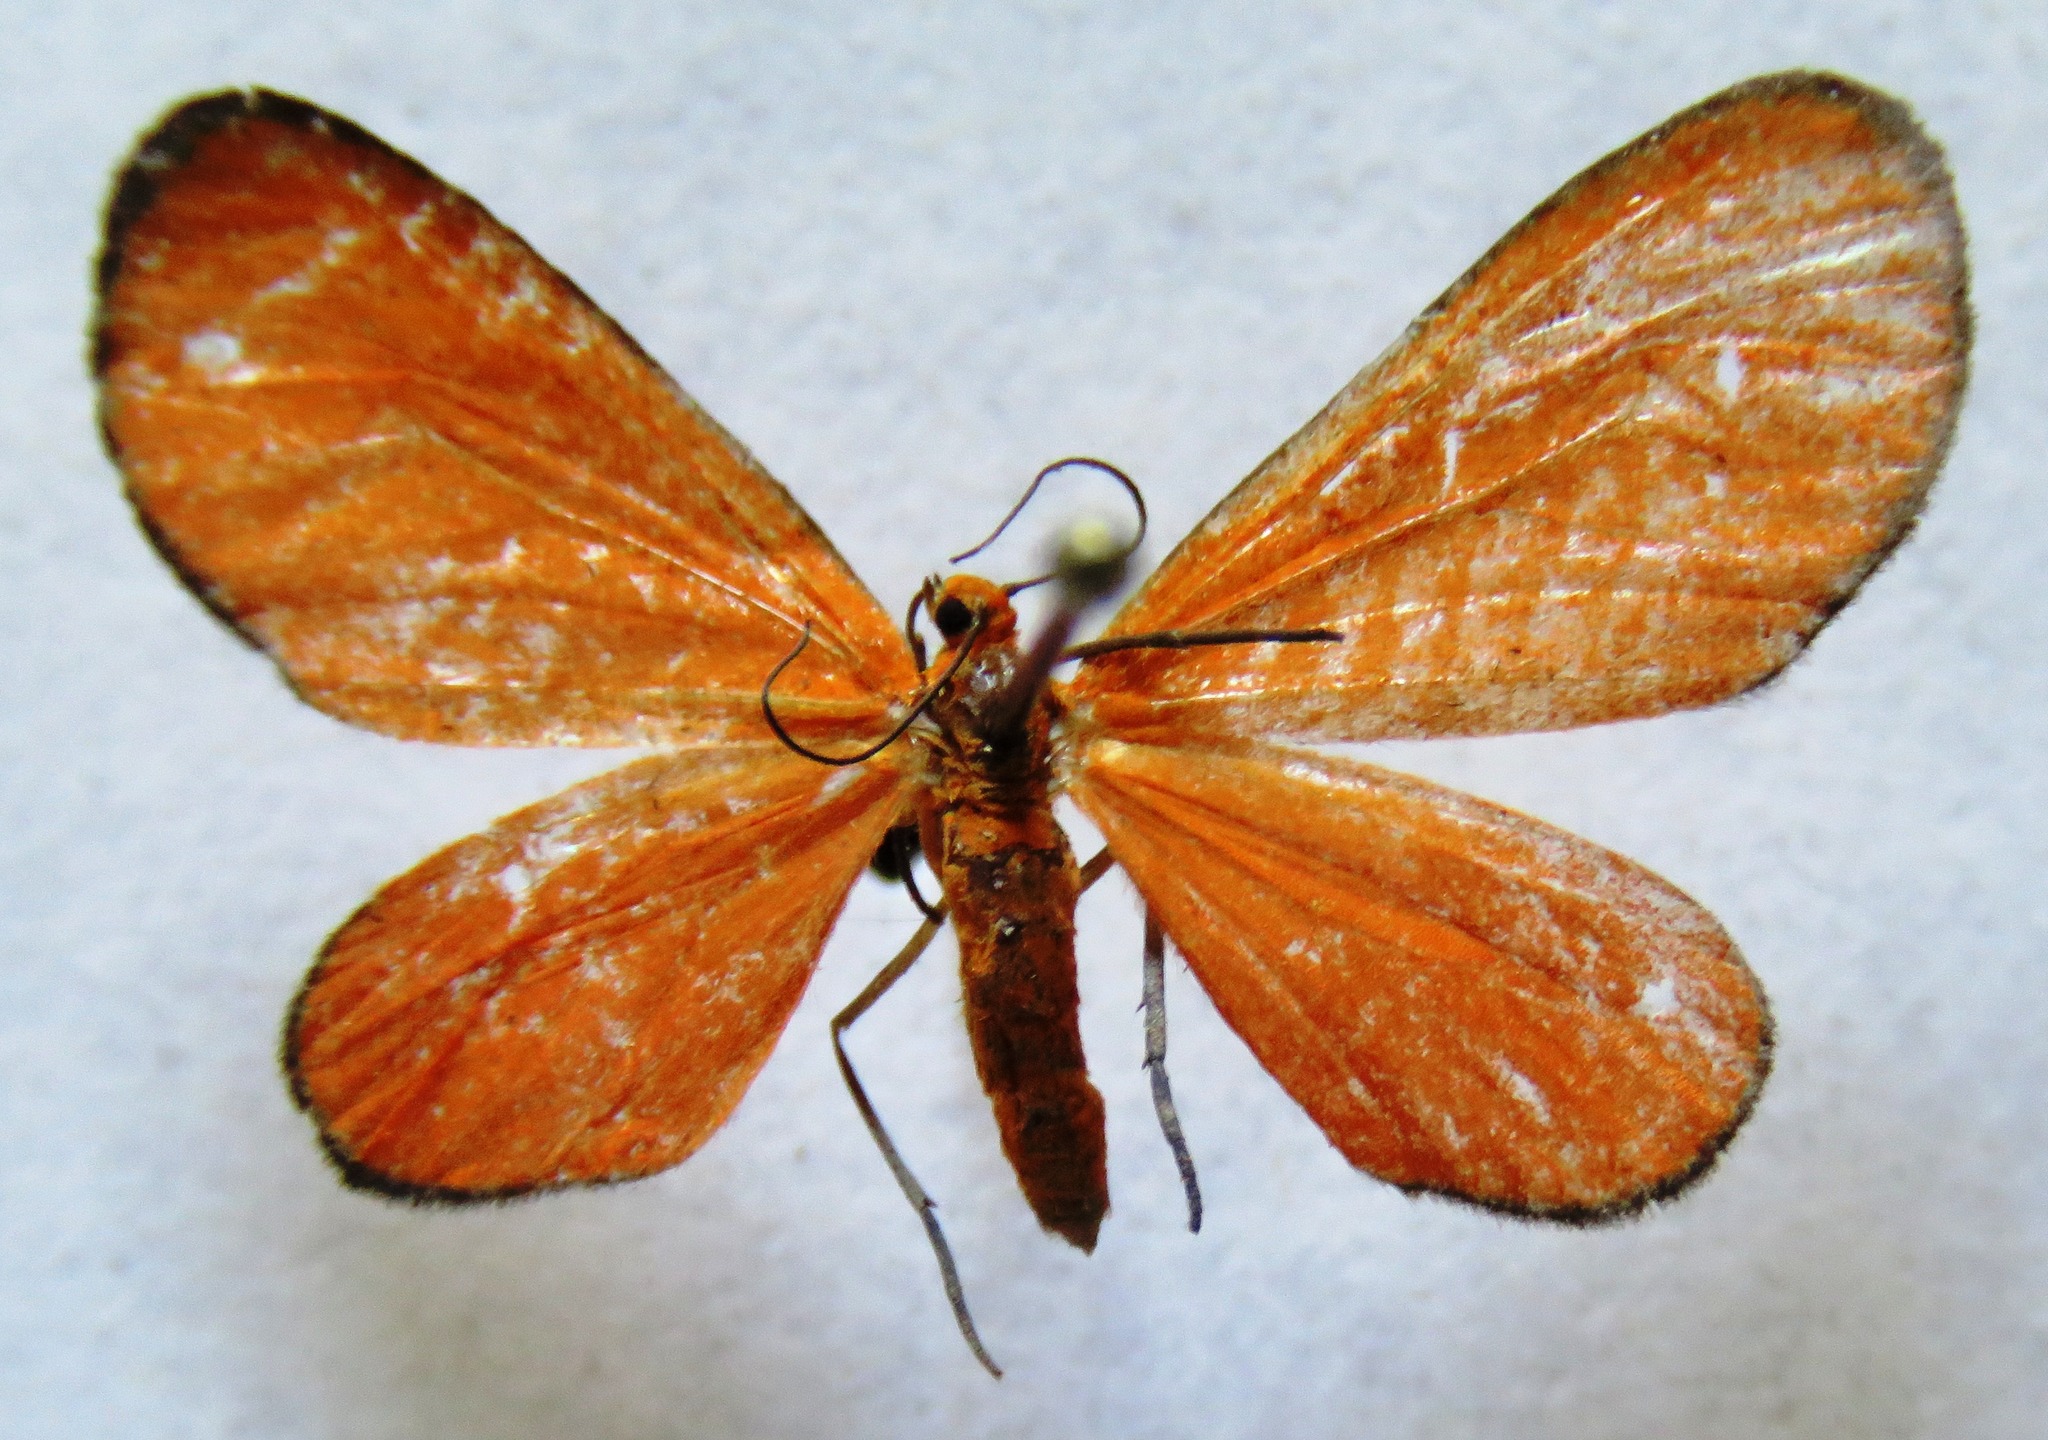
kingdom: Animalia
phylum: Arthropoda
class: Insecta
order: Lepidoptera
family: Geometridae
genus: Eudulophasia
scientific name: Eudulophasia invaria
